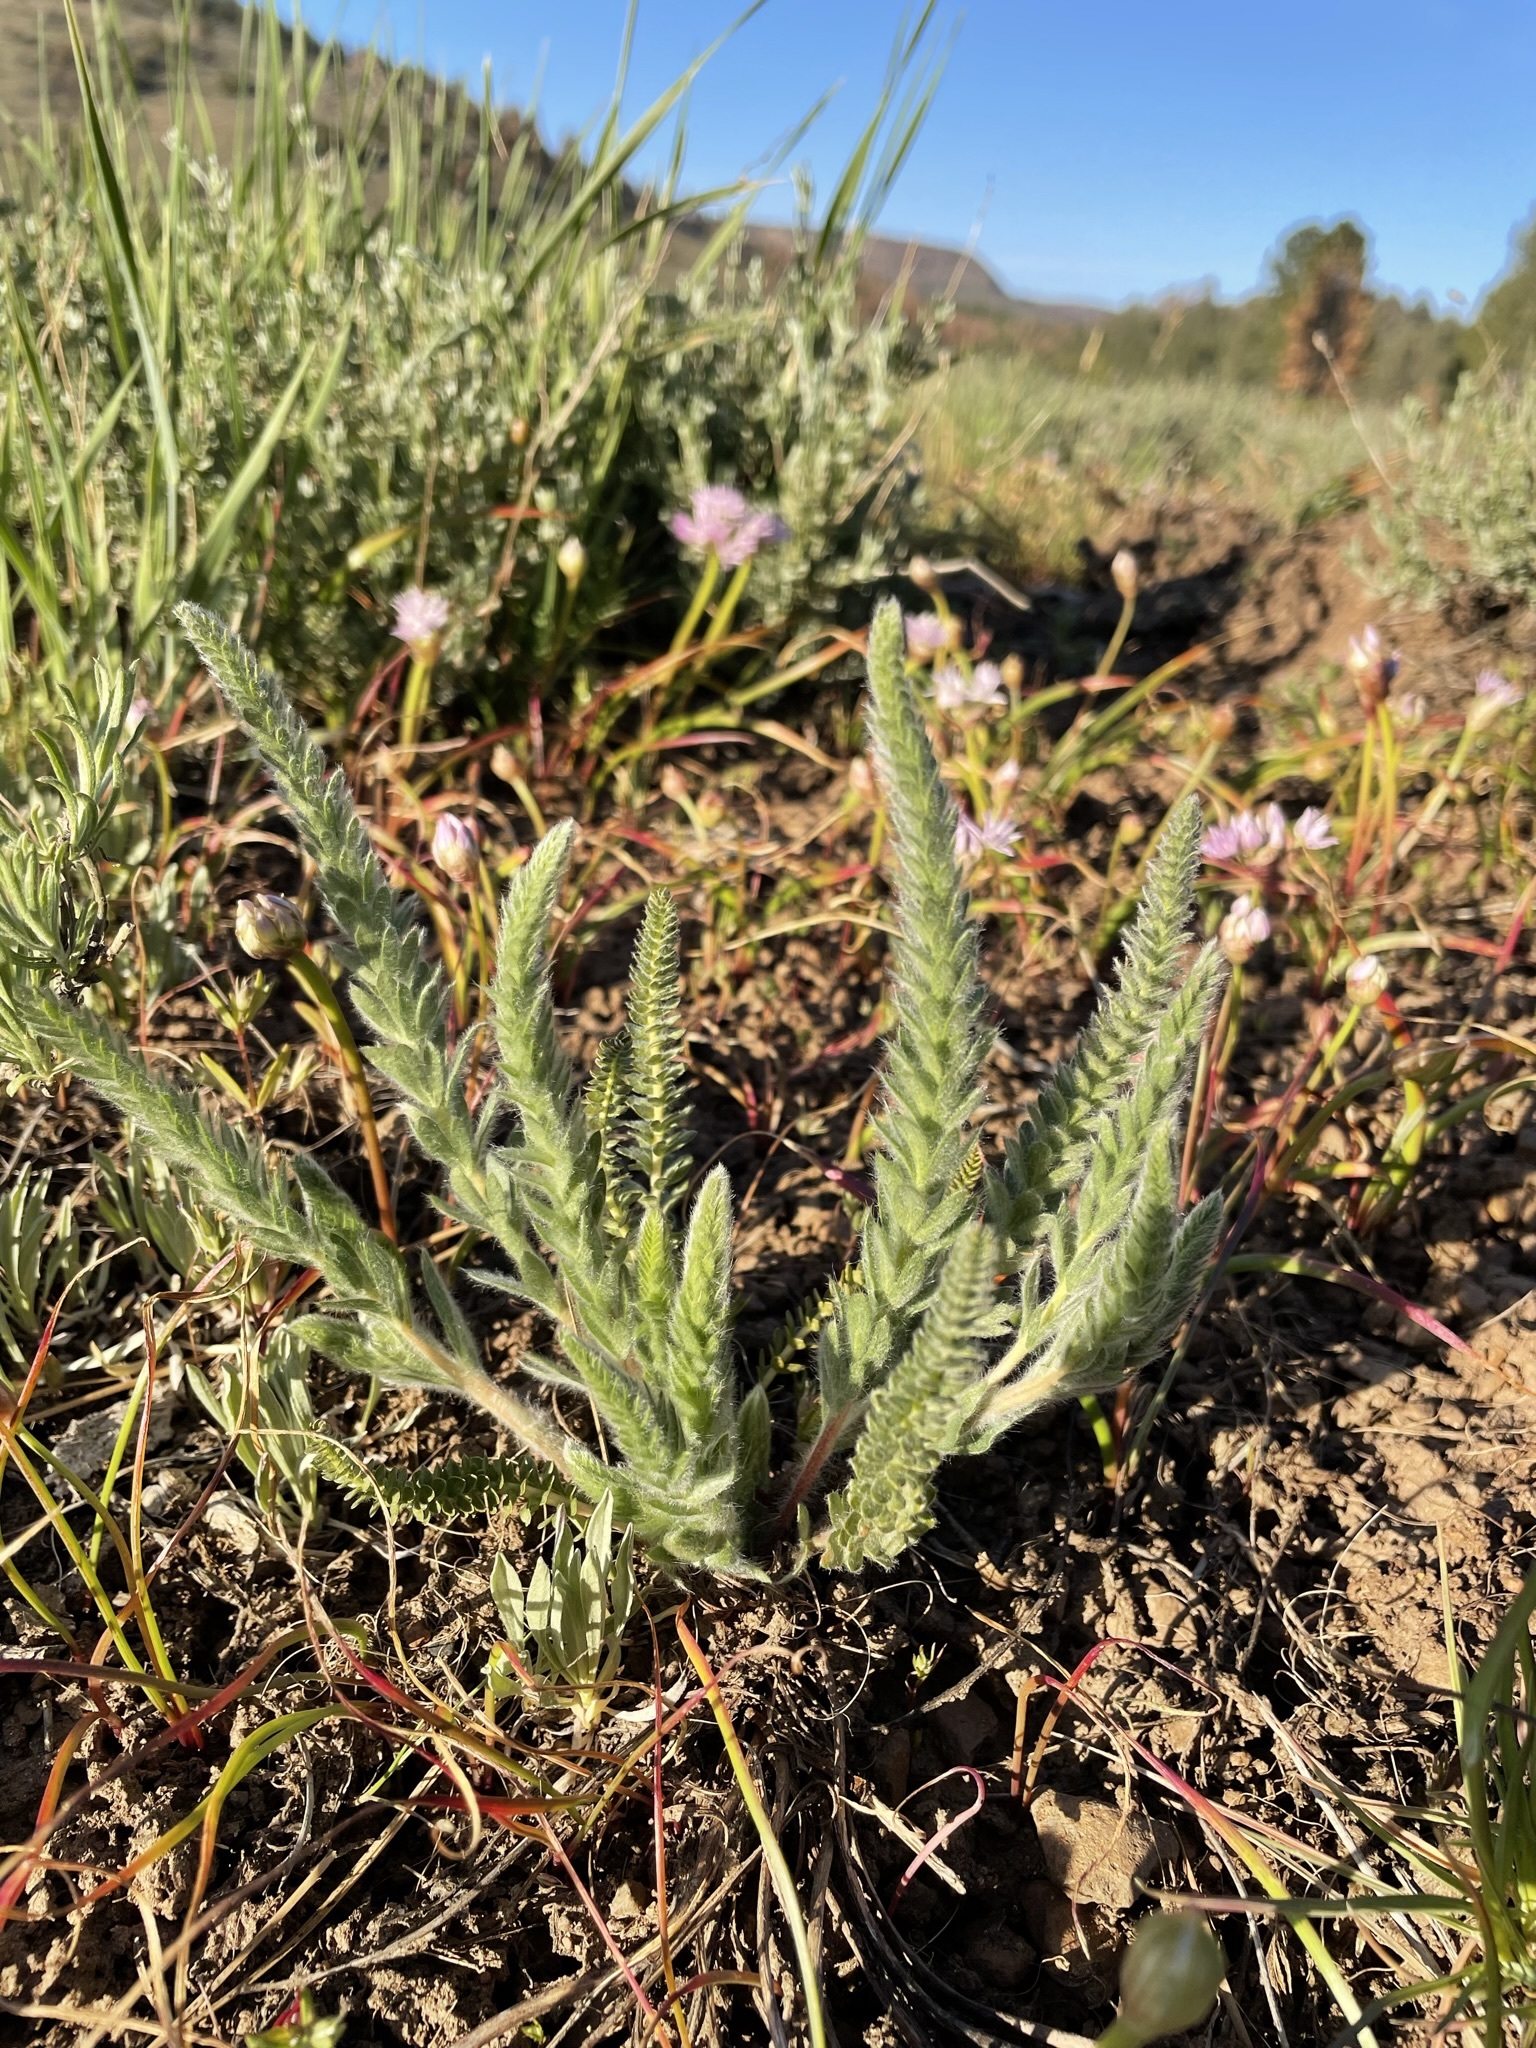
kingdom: Plantae
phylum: Tracheophyta
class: Magnoliopsida
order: Rosales
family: Rosaceae
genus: Potentilla
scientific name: Potentilla sericoleuca
